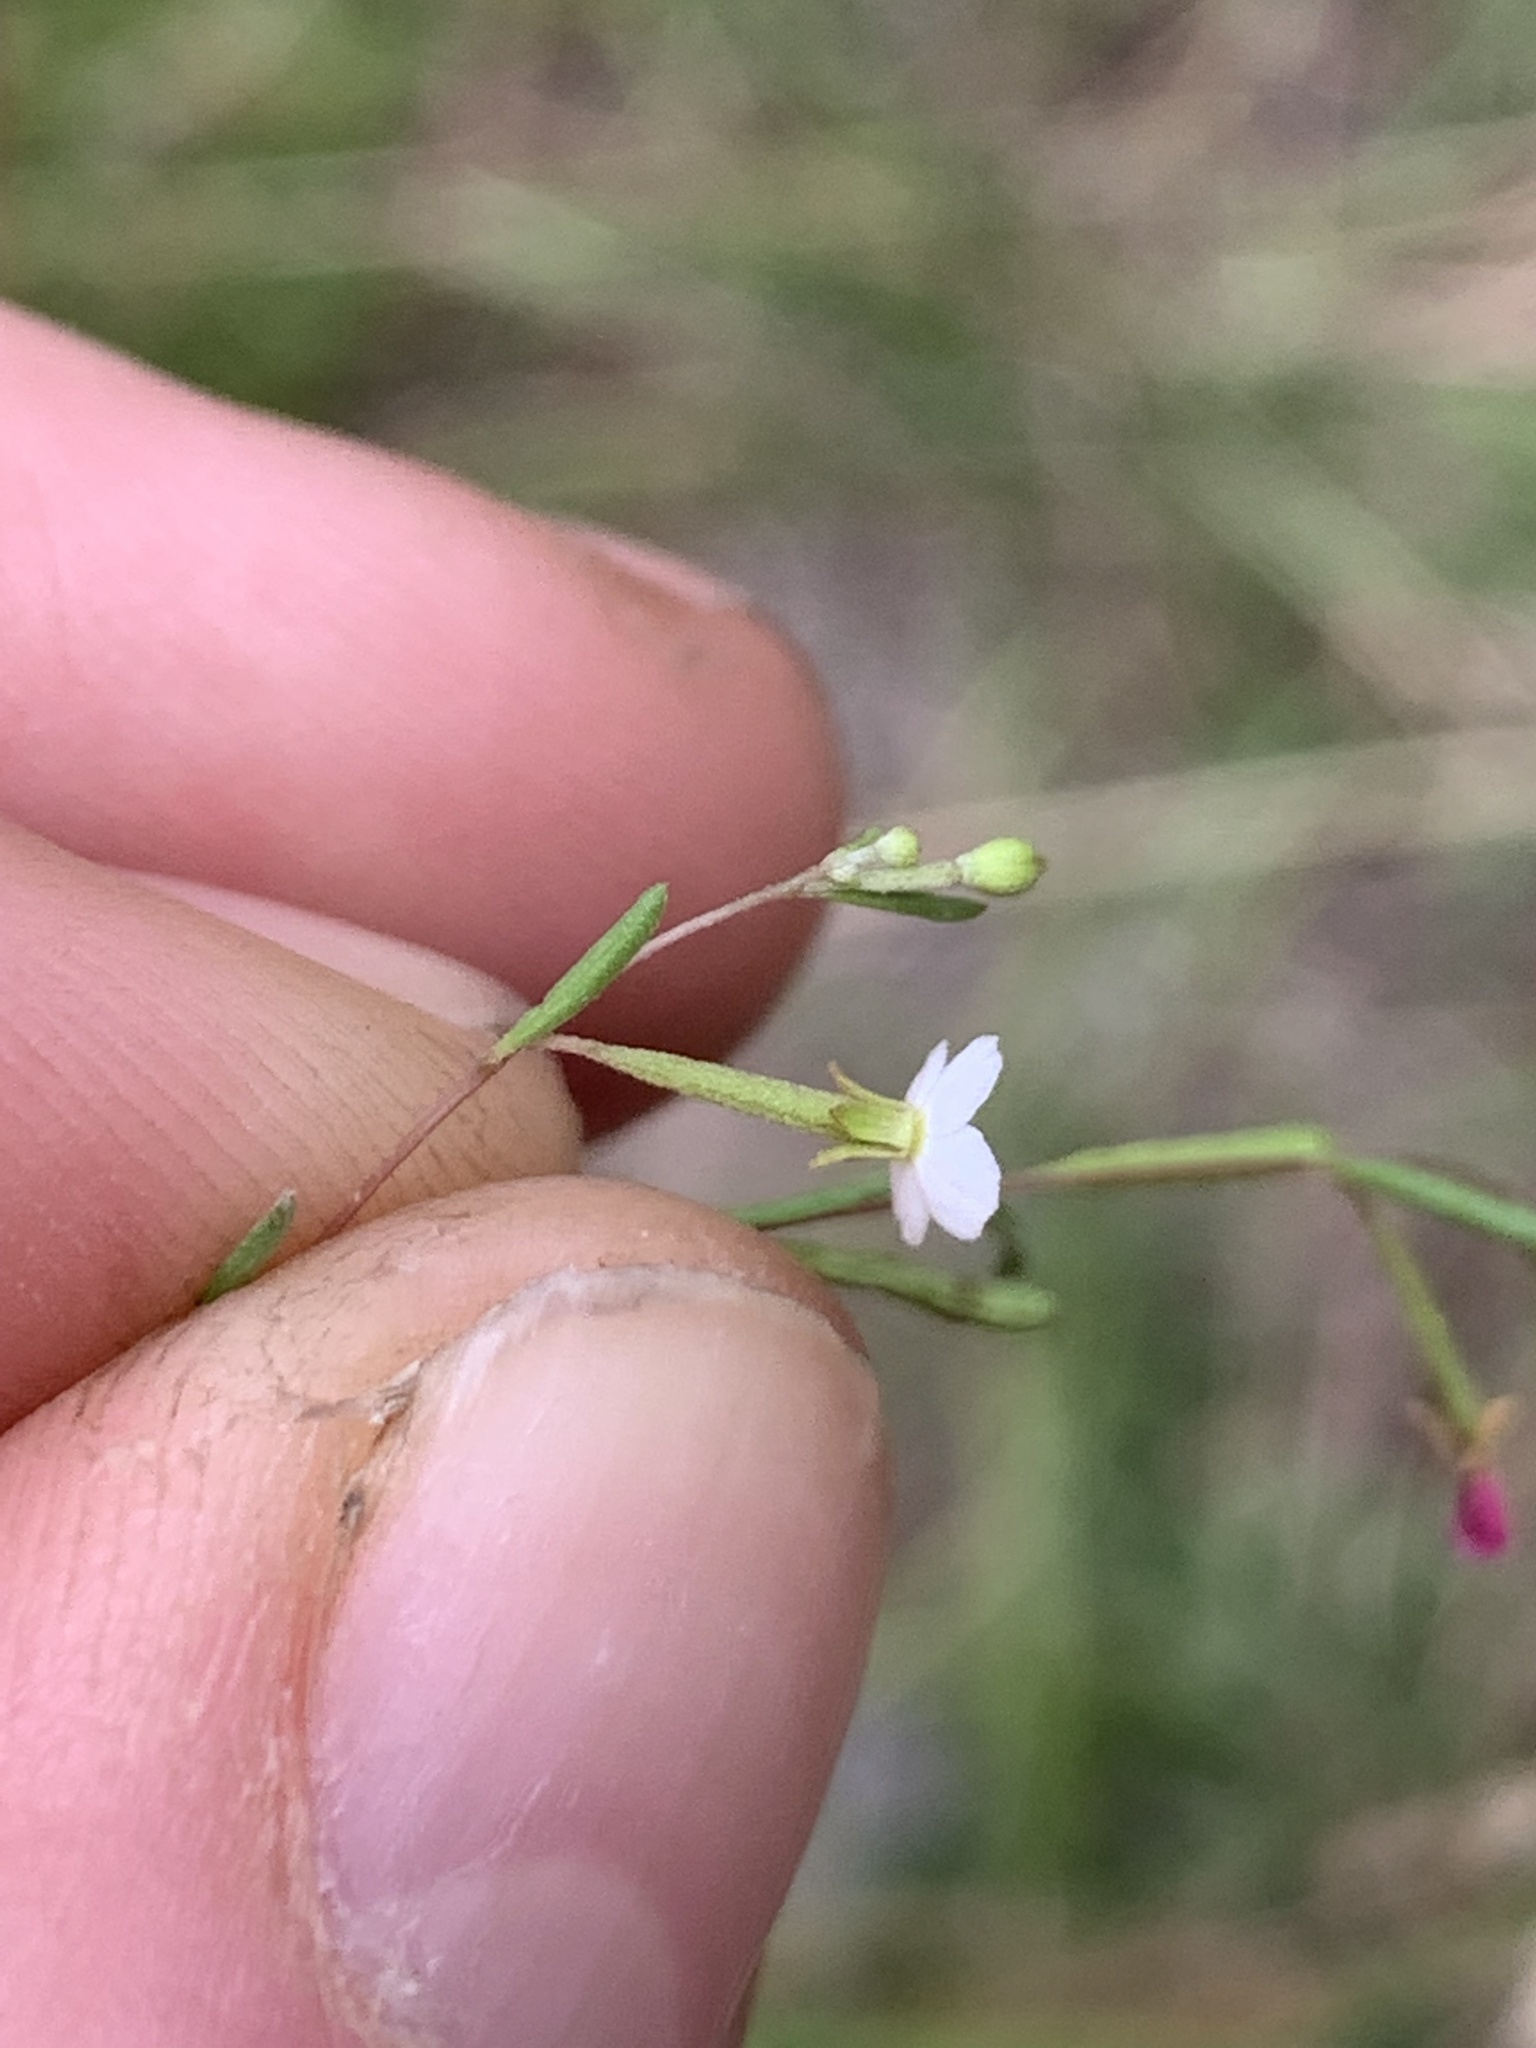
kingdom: Plantae
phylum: Tracheophyta
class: Magnoliopsida
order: Myrtales
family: Onagraceae
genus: Gayophytum
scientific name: Gayophytum diffusum
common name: Big-flowered groundsmoke
